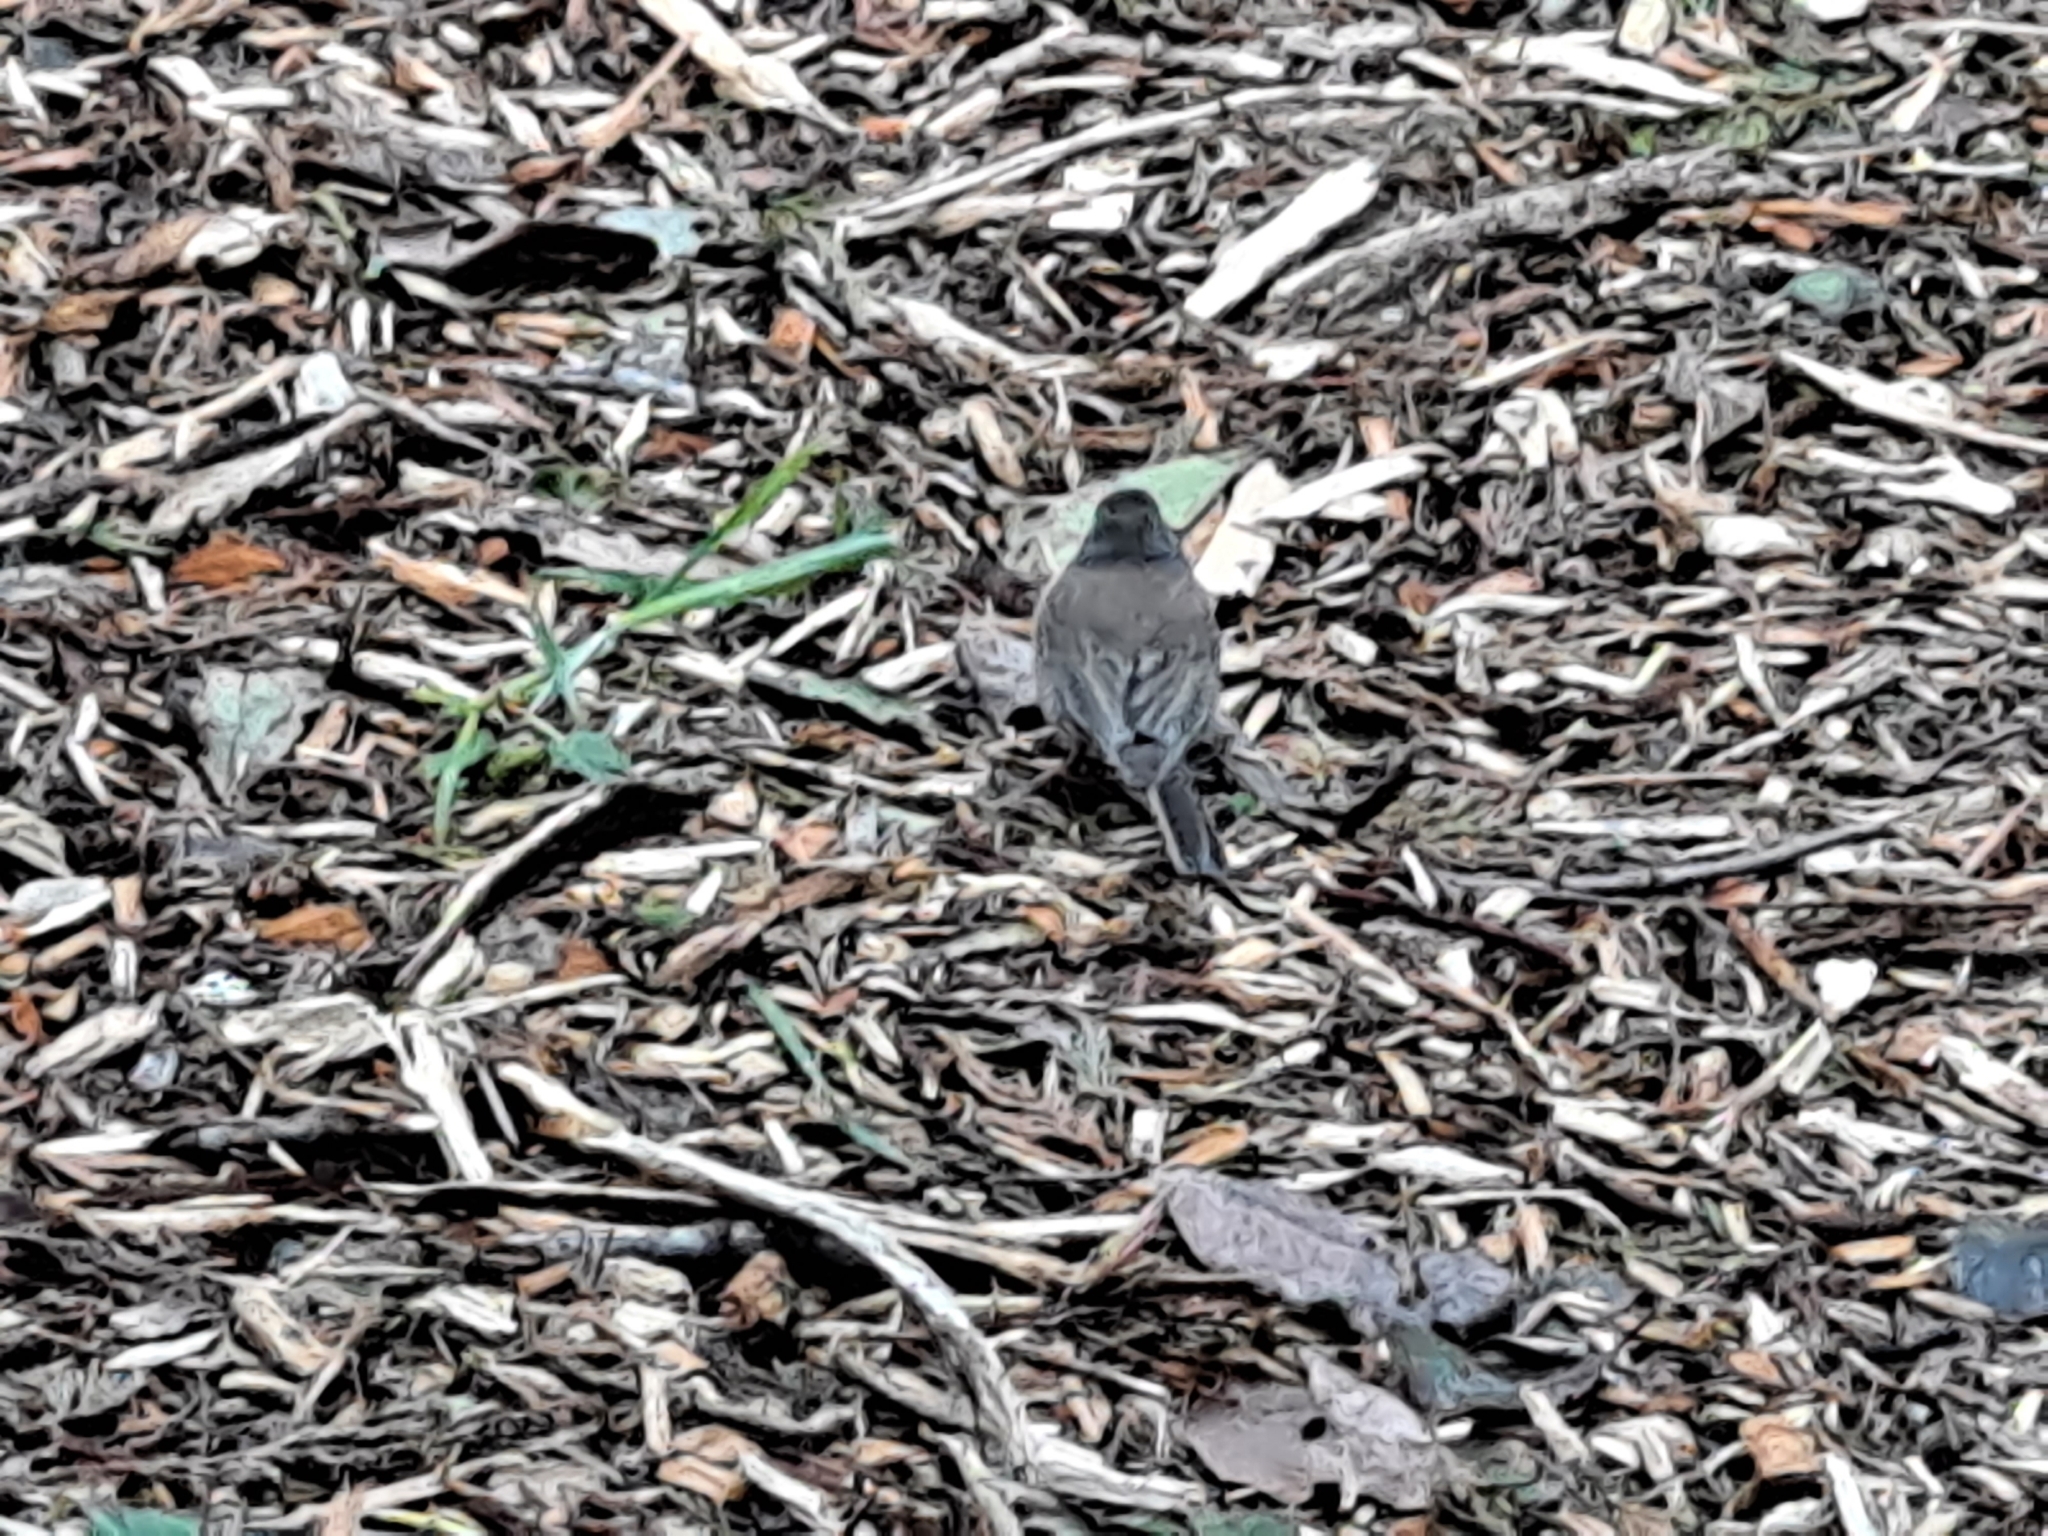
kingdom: Animalia
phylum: Chordata
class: Aves
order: Passeriformes
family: Passerellidae
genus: Junco
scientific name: Junco hyemalis
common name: Dark-eyed junco
